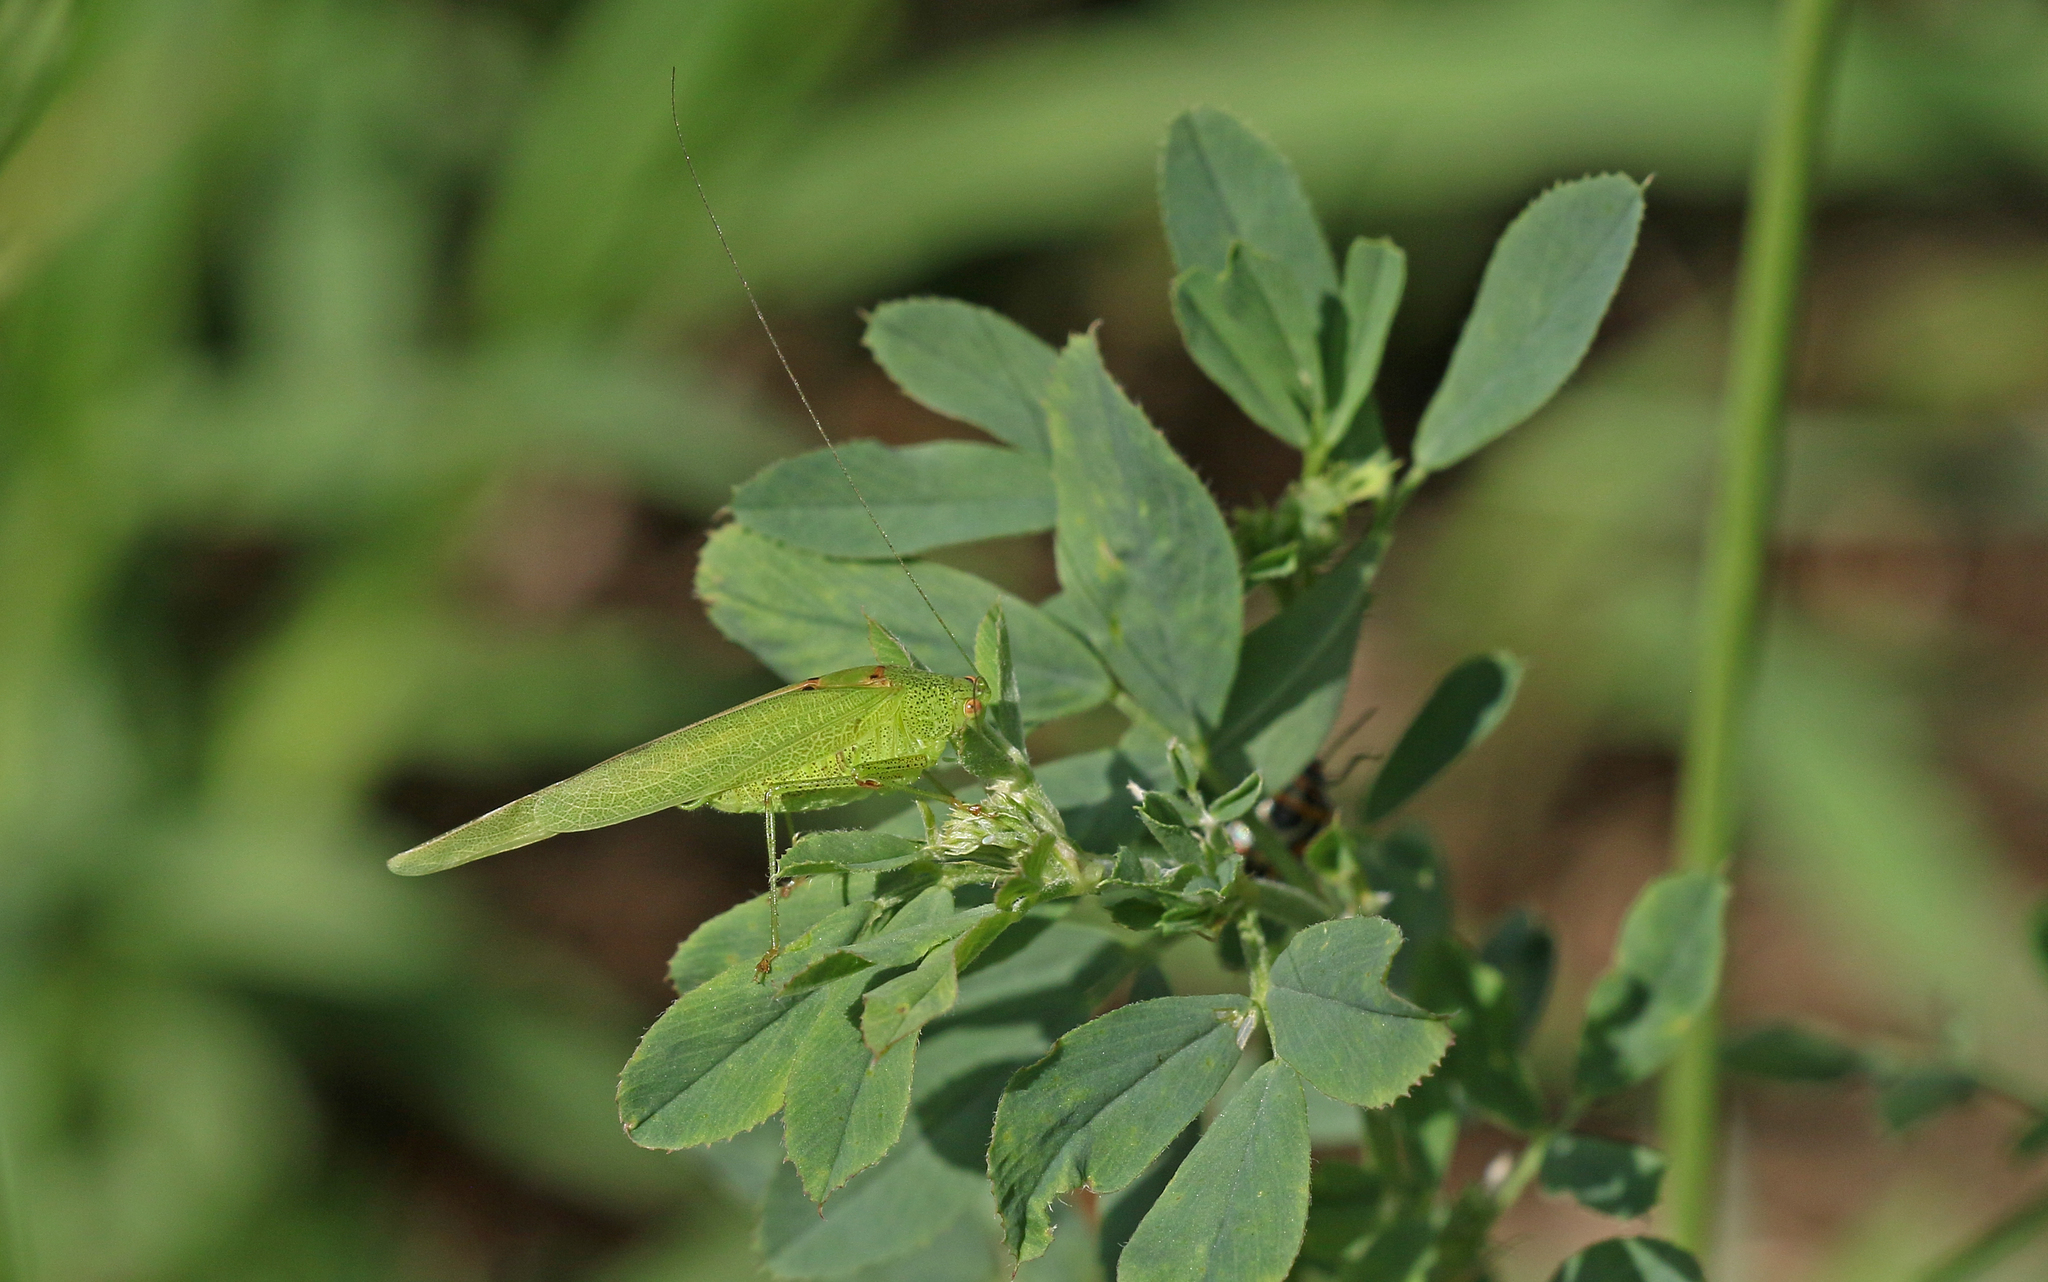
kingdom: Animalia
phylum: Arthropoda
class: Insecta
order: Orthoptera
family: Tettigoniidae
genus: Phaneroptera
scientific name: Phaneroptera nana
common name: Southern sickle bush-cricket
